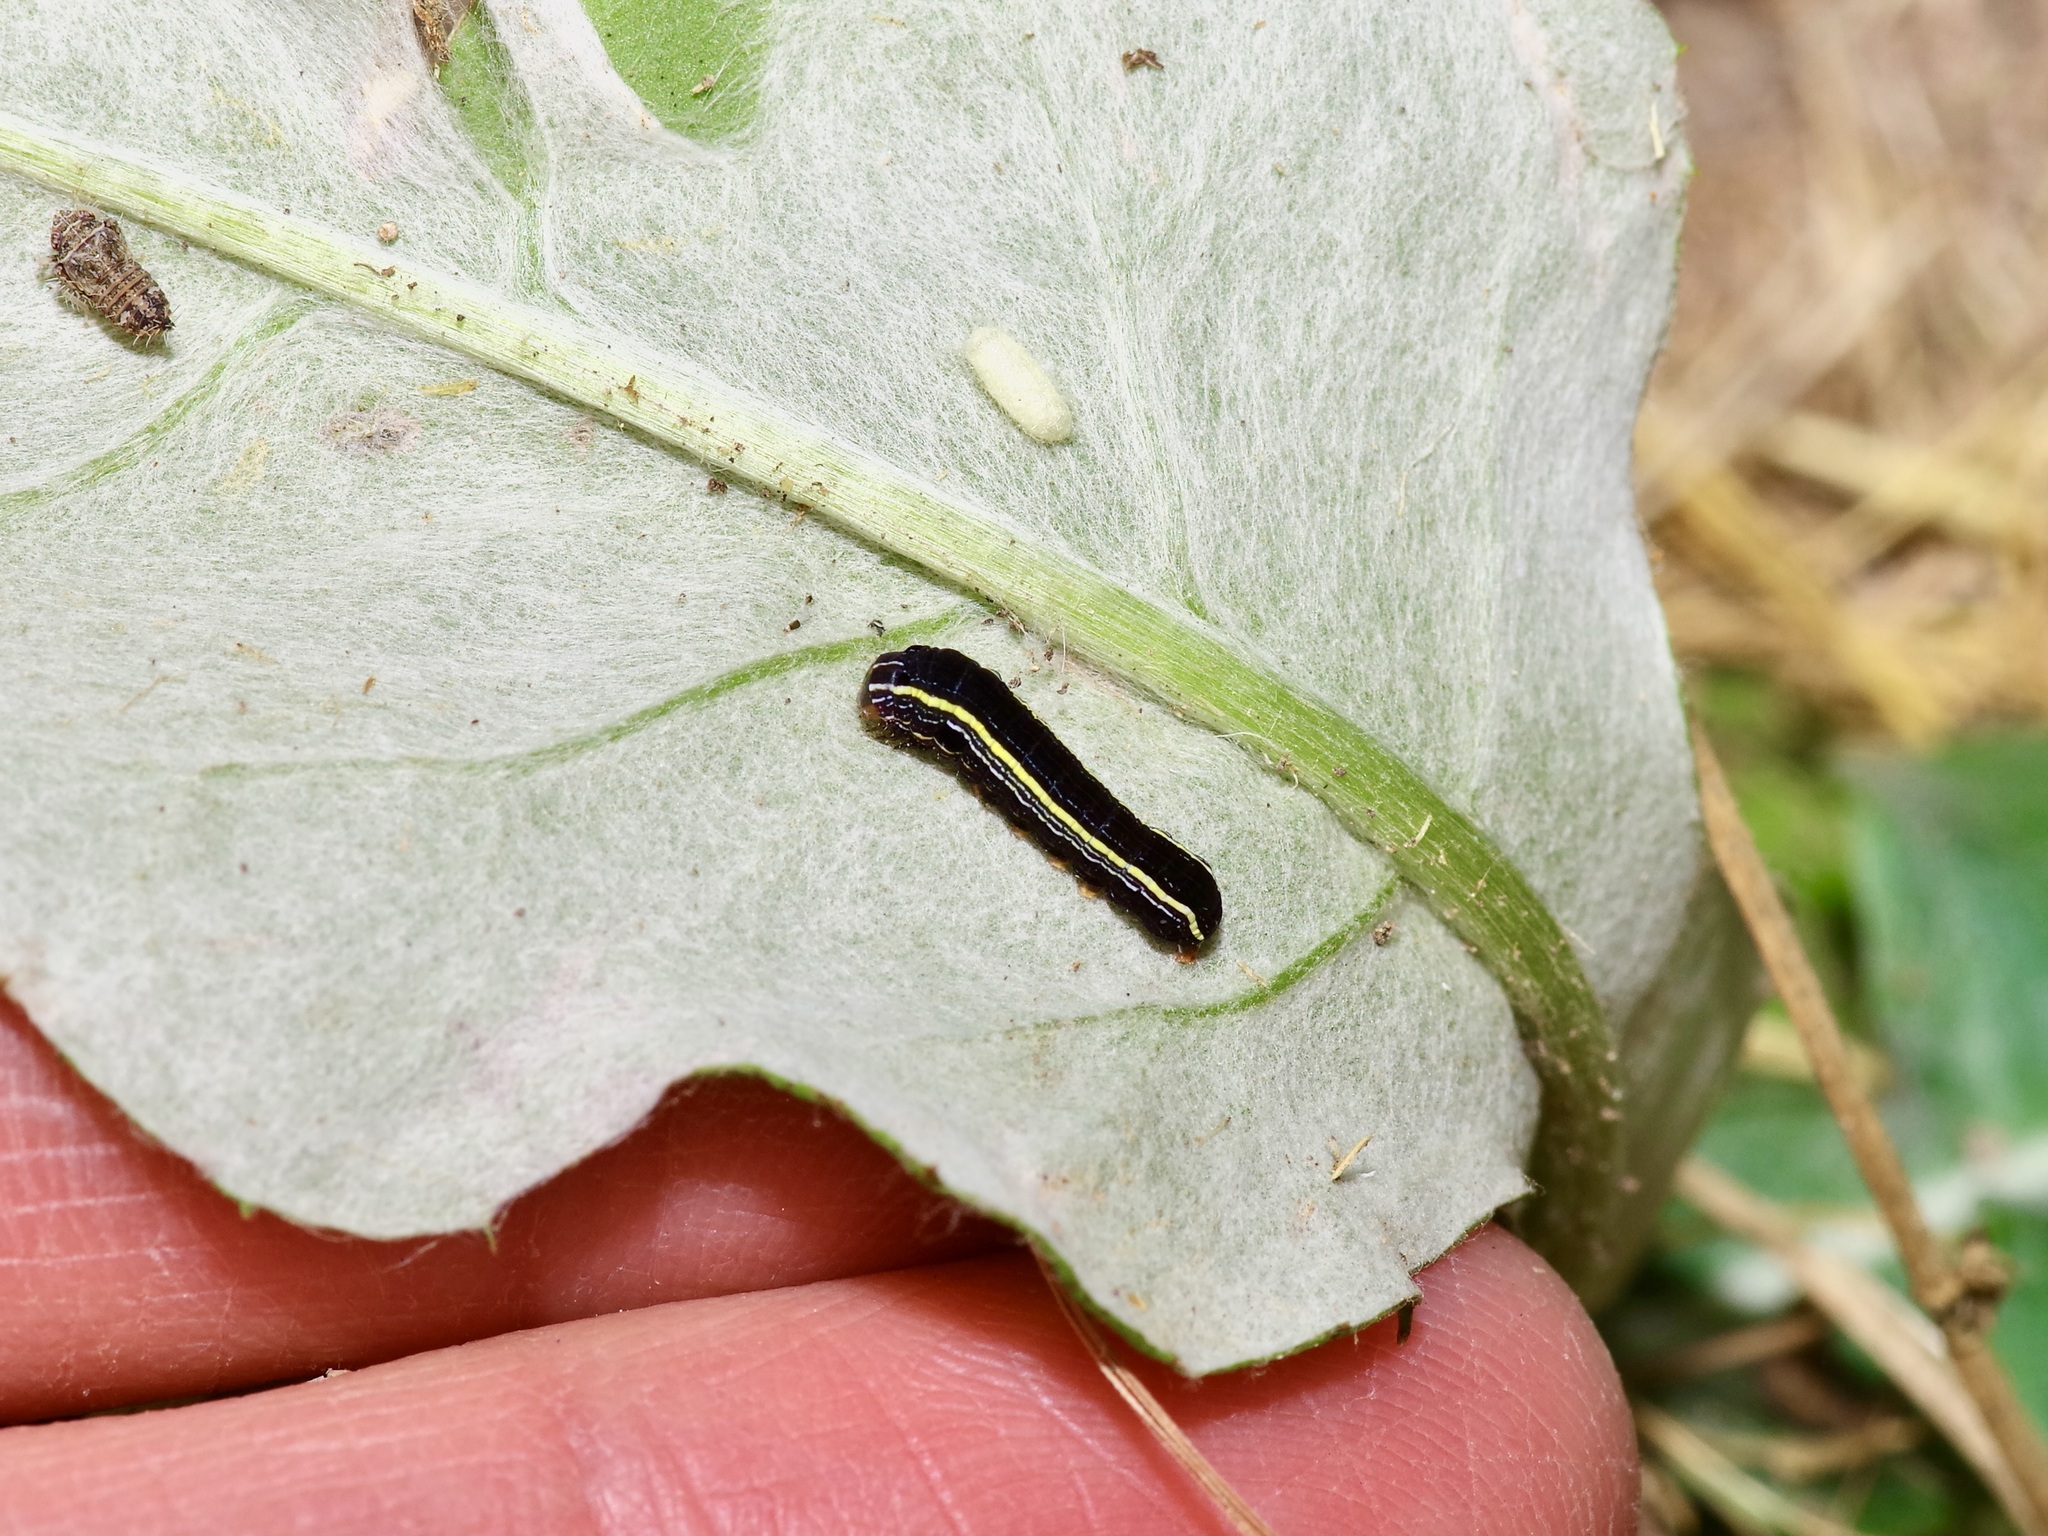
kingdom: Animalia
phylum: Arthropoda
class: Insecta
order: Lepidoptera
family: Noctuidae
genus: Spodoptera
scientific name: Spodoptera ornithogalli
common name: Yellow-striped armyworm
